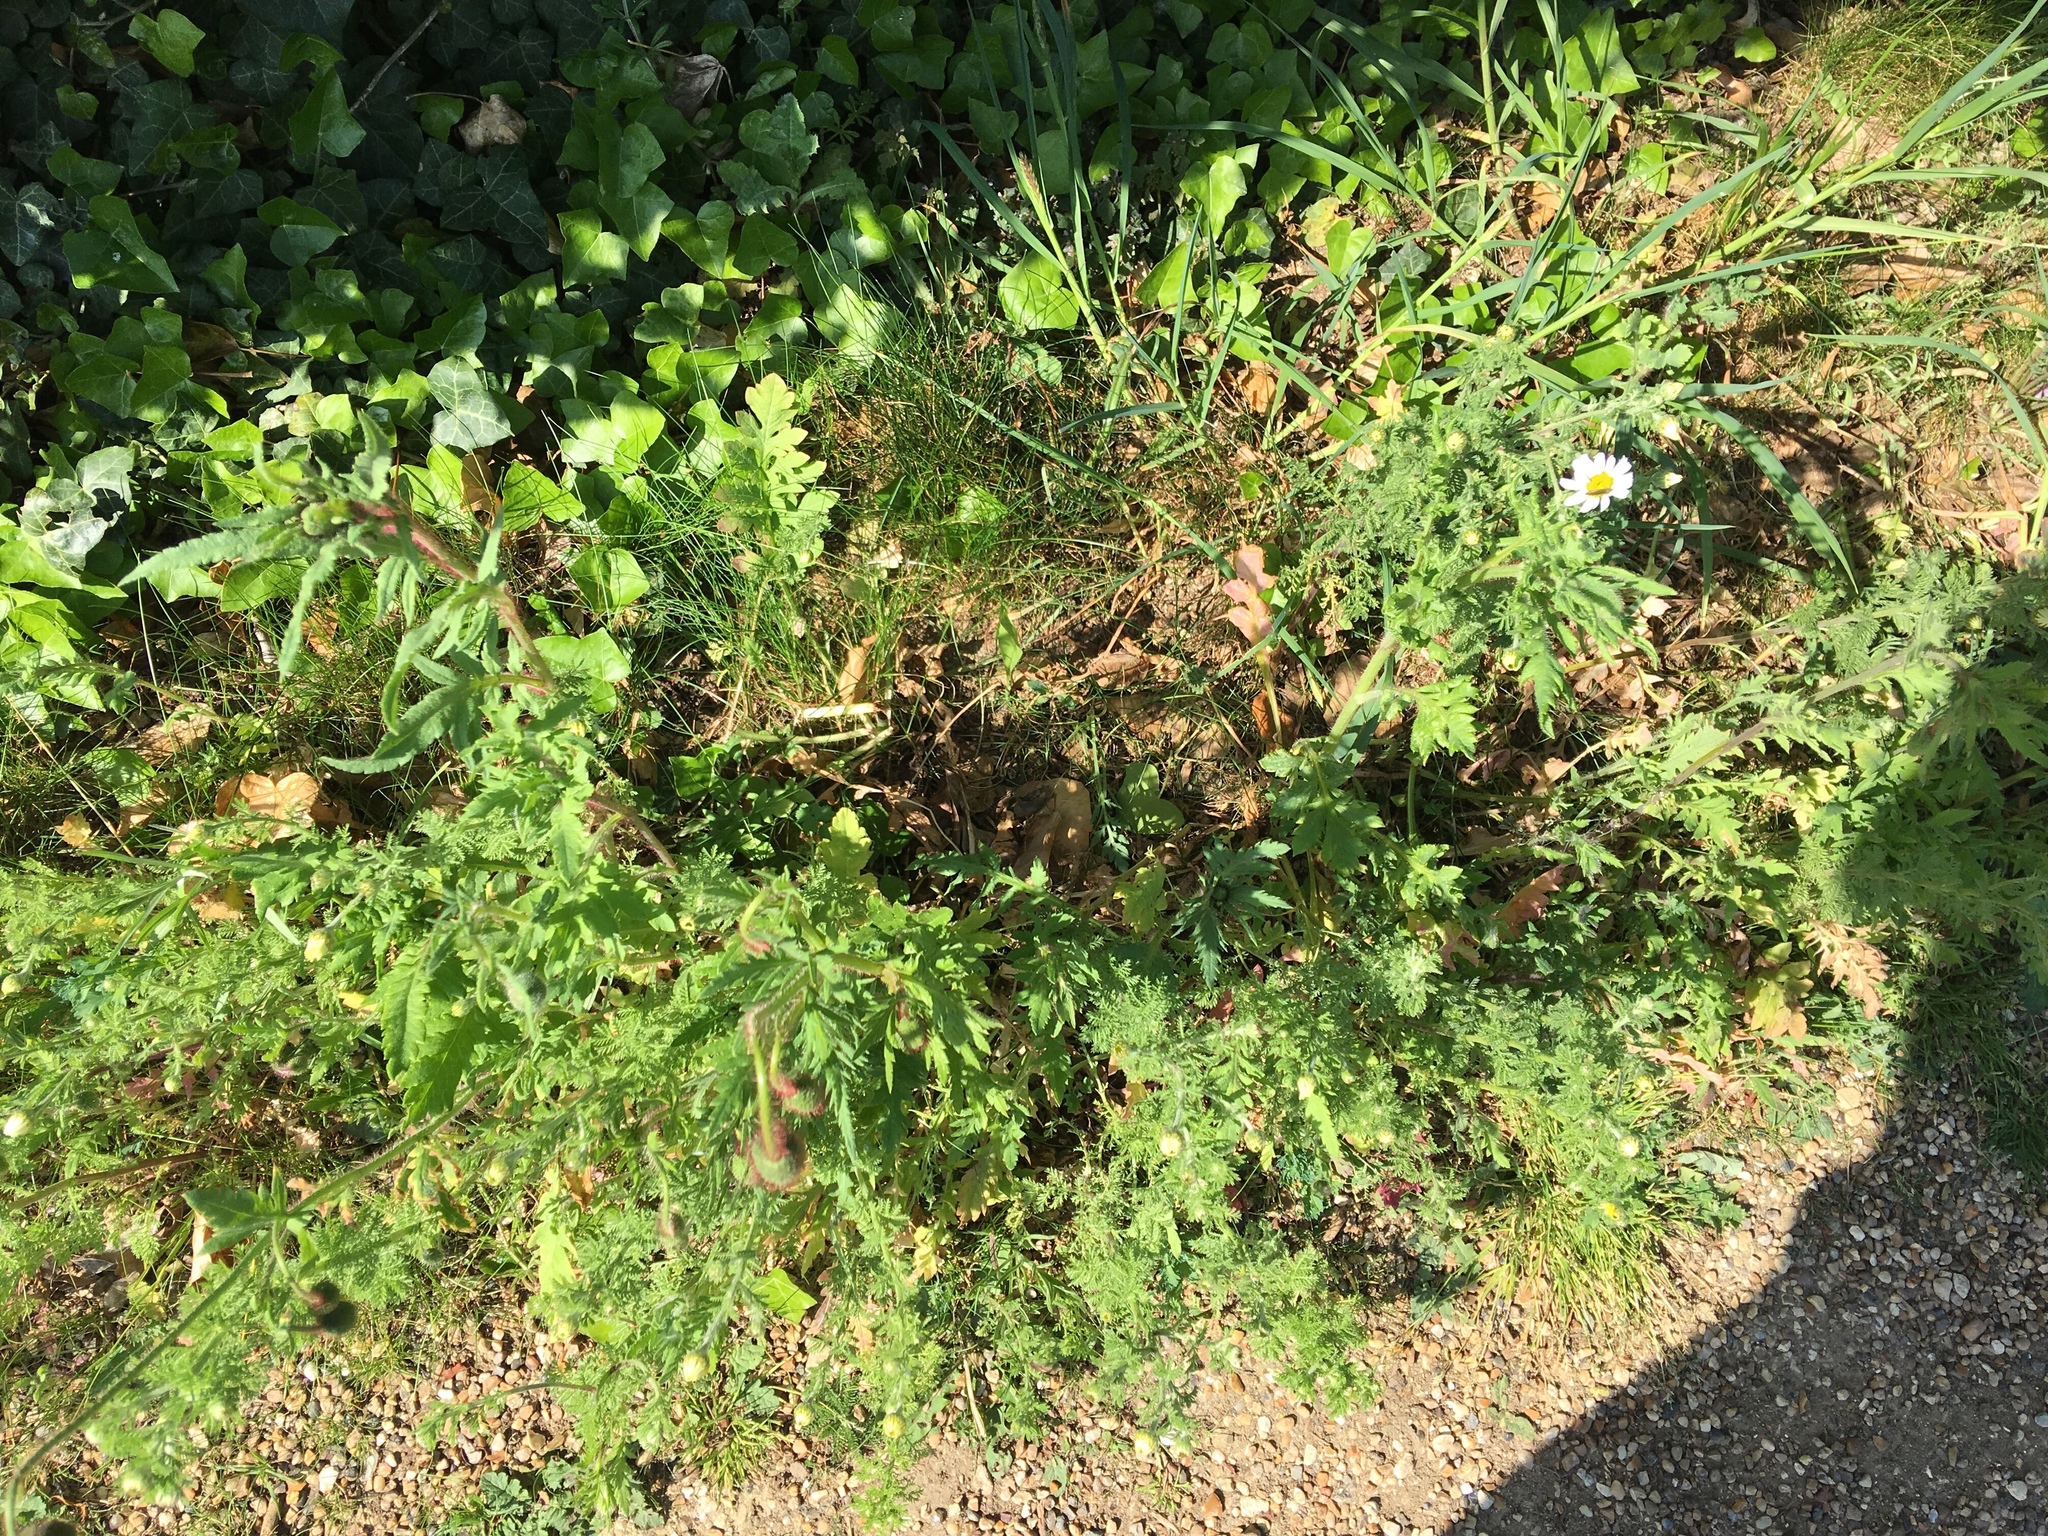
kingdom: Plantae
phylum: Tracheophyta
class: Magnoliopsida
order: Asterales
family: Asteraceae
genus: Cota
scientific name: Cota austriaca
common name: Austrian chamomile
